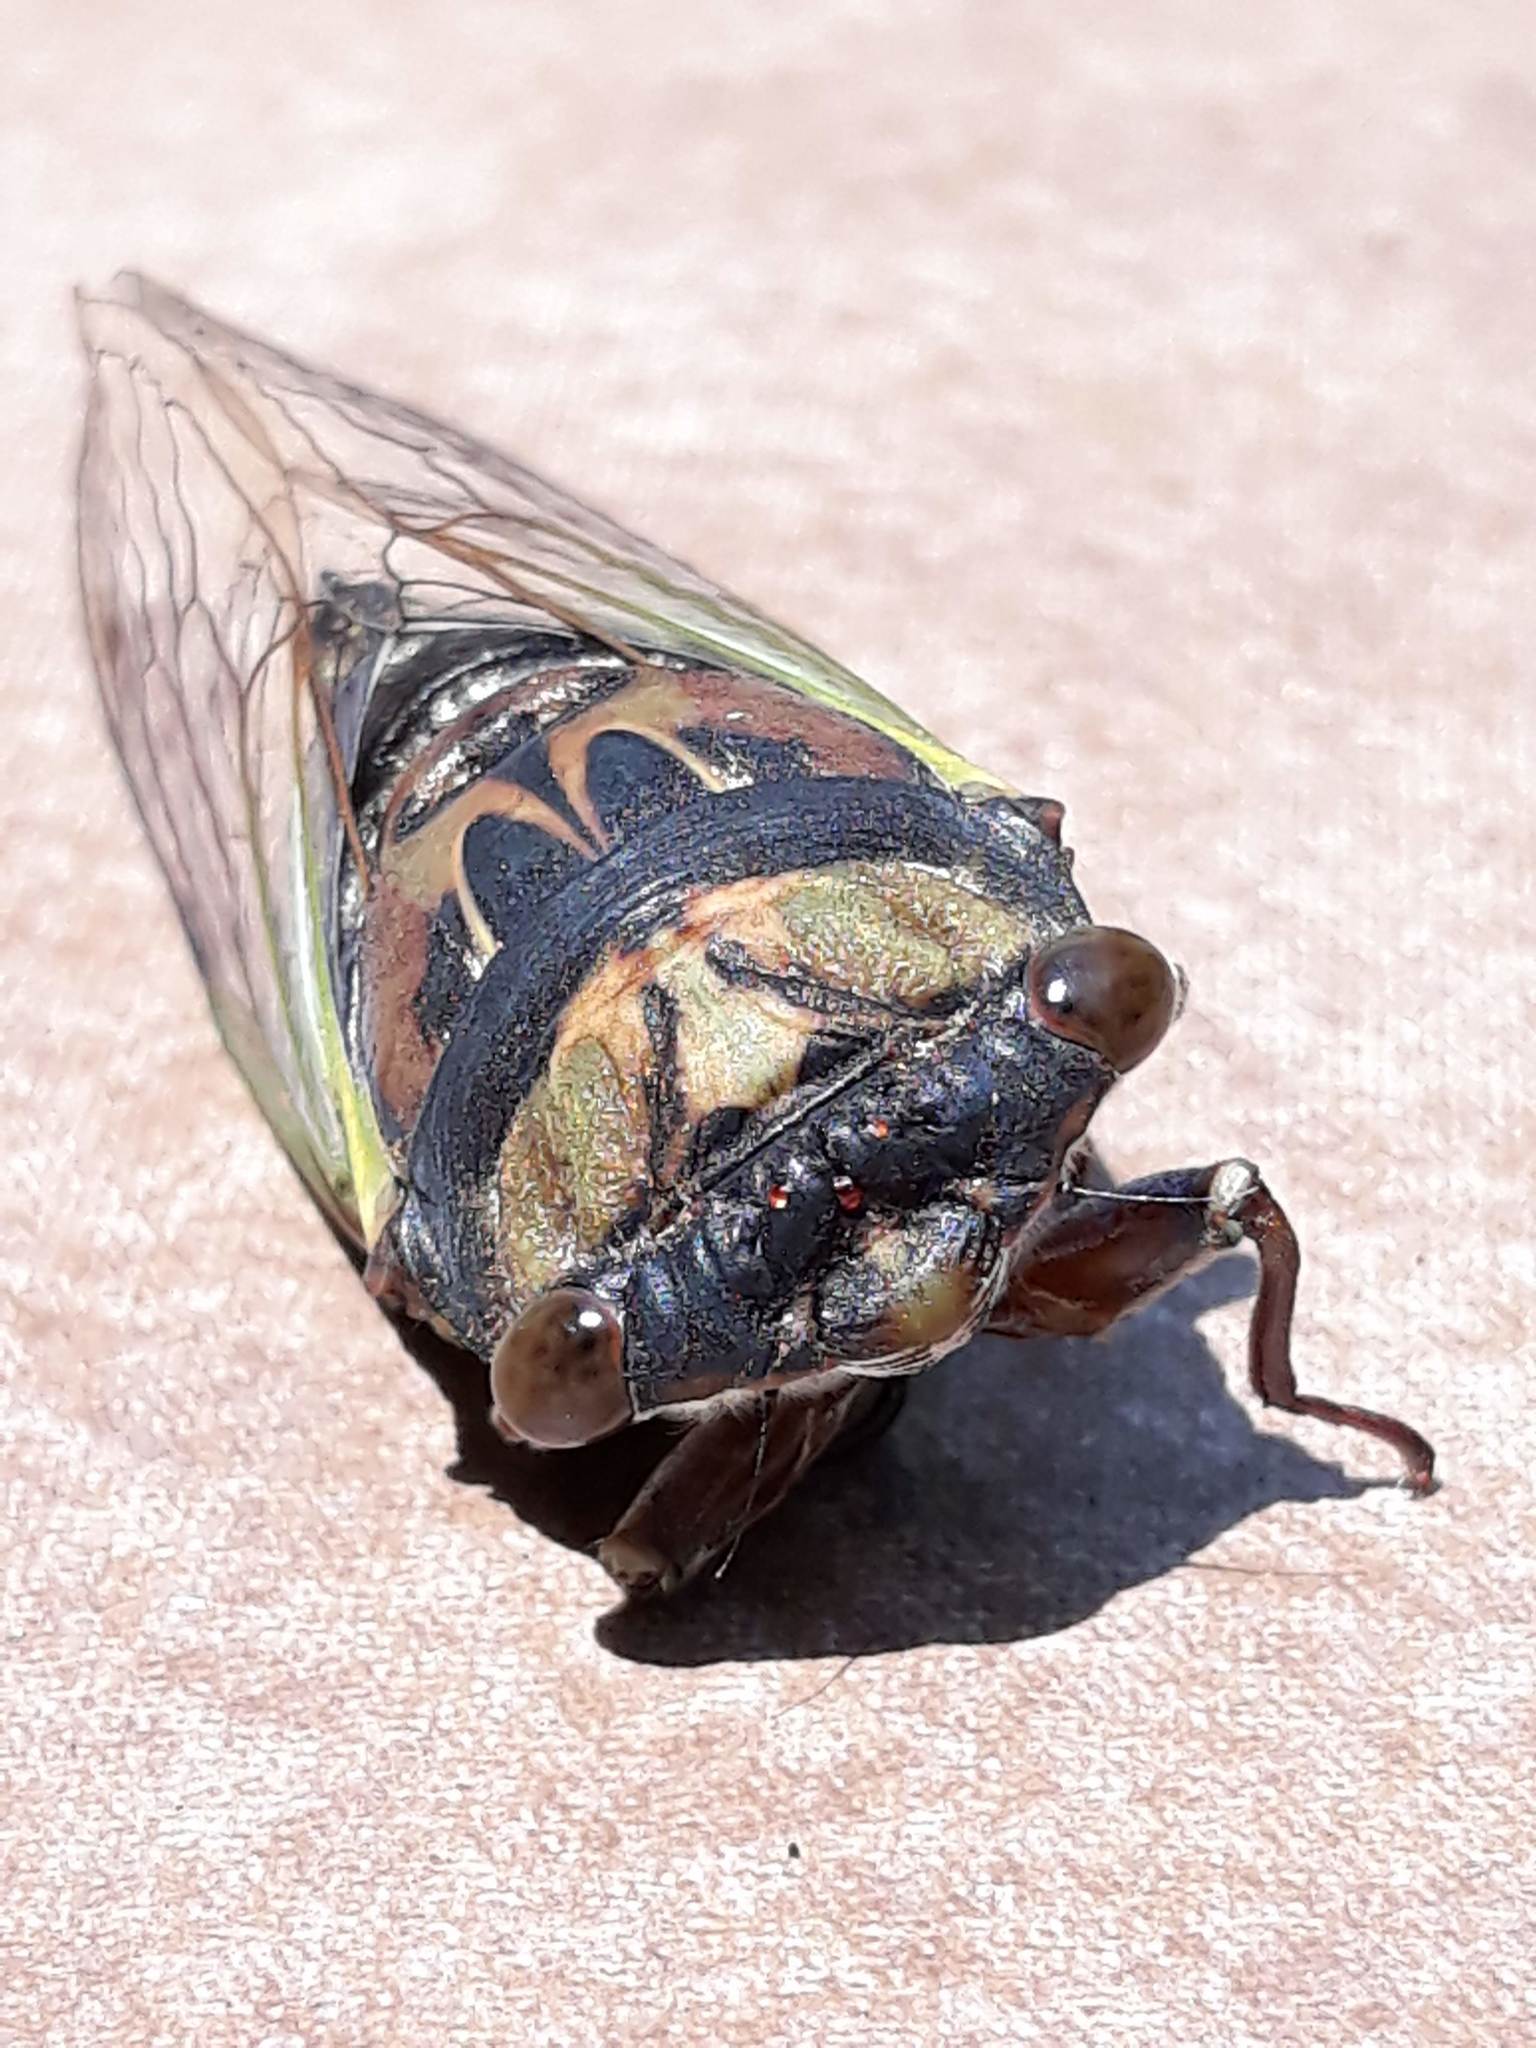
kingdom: Animalia
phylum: Arthropoda
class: Insecta
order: Hemiptera
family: Cicadidae
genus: Neotibicen
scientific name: Neotibicen lyricen
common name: Lyric cicada
